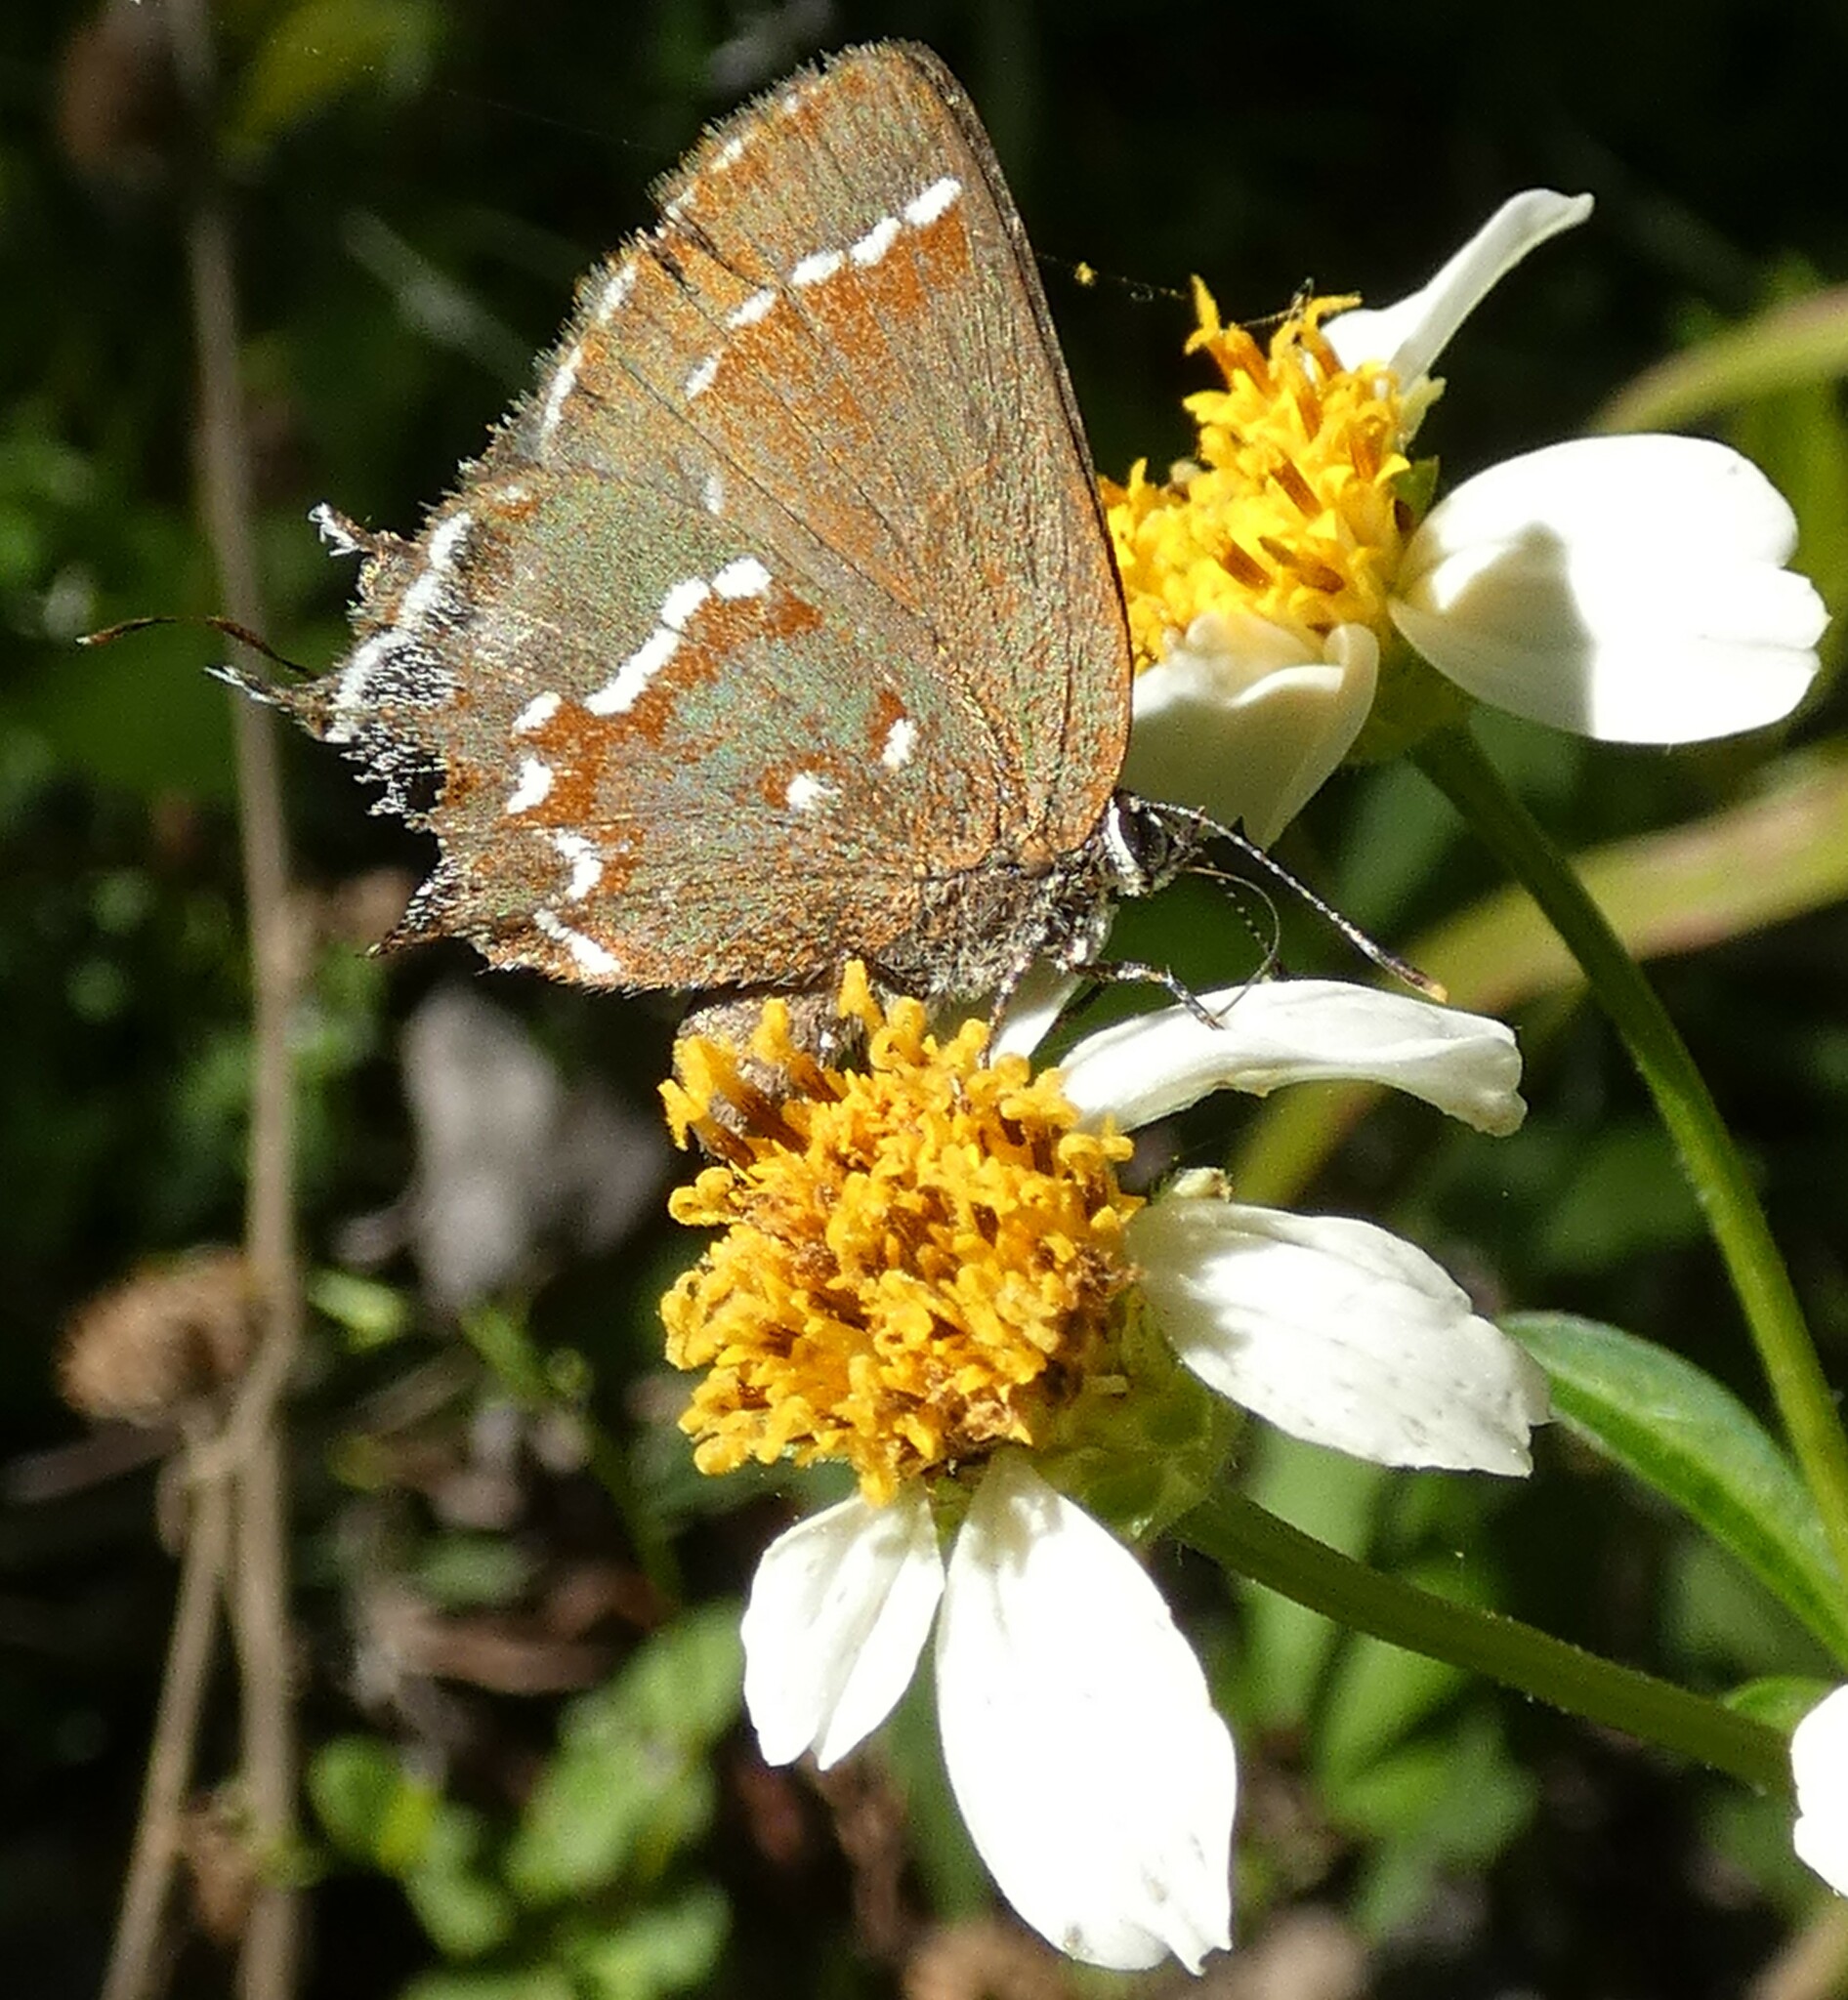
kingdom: Animalia
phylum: Arthropoda
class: Insecta
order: Lepidoptera
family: Lycaenidae
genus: Mitoura
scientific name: Mitoura gryneus
